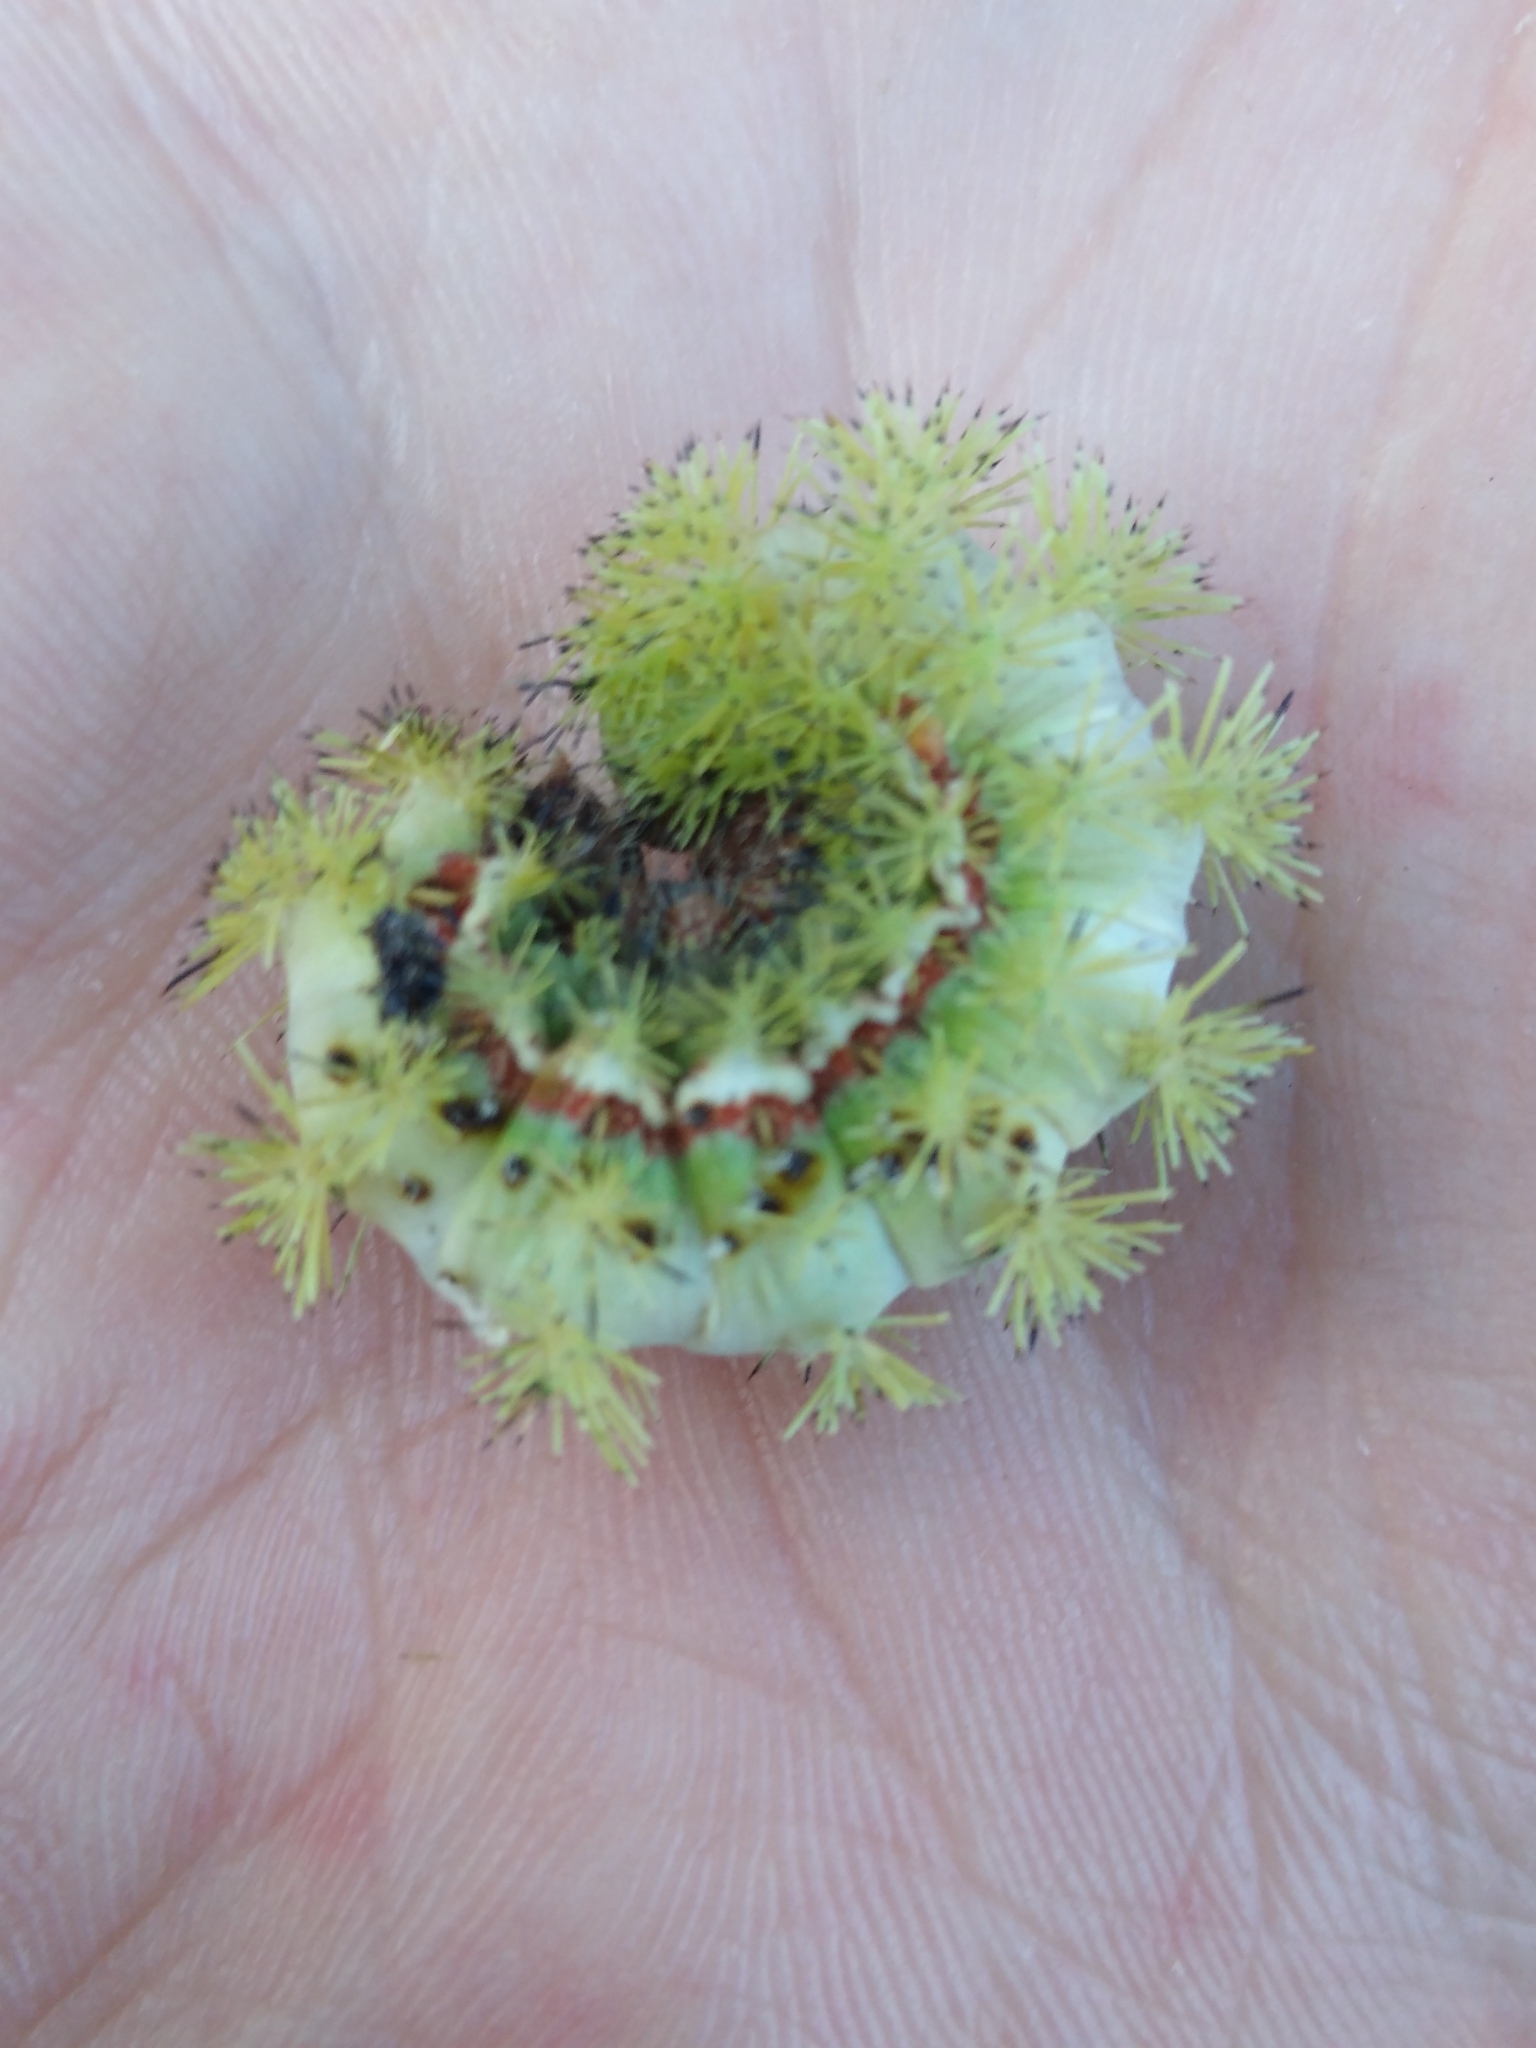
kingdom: Animalia
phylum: Arthropoda
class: Insecta
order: Lepidoptera
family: Saturniidae
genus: Automeris
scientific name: Automeris io
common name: Io moth
